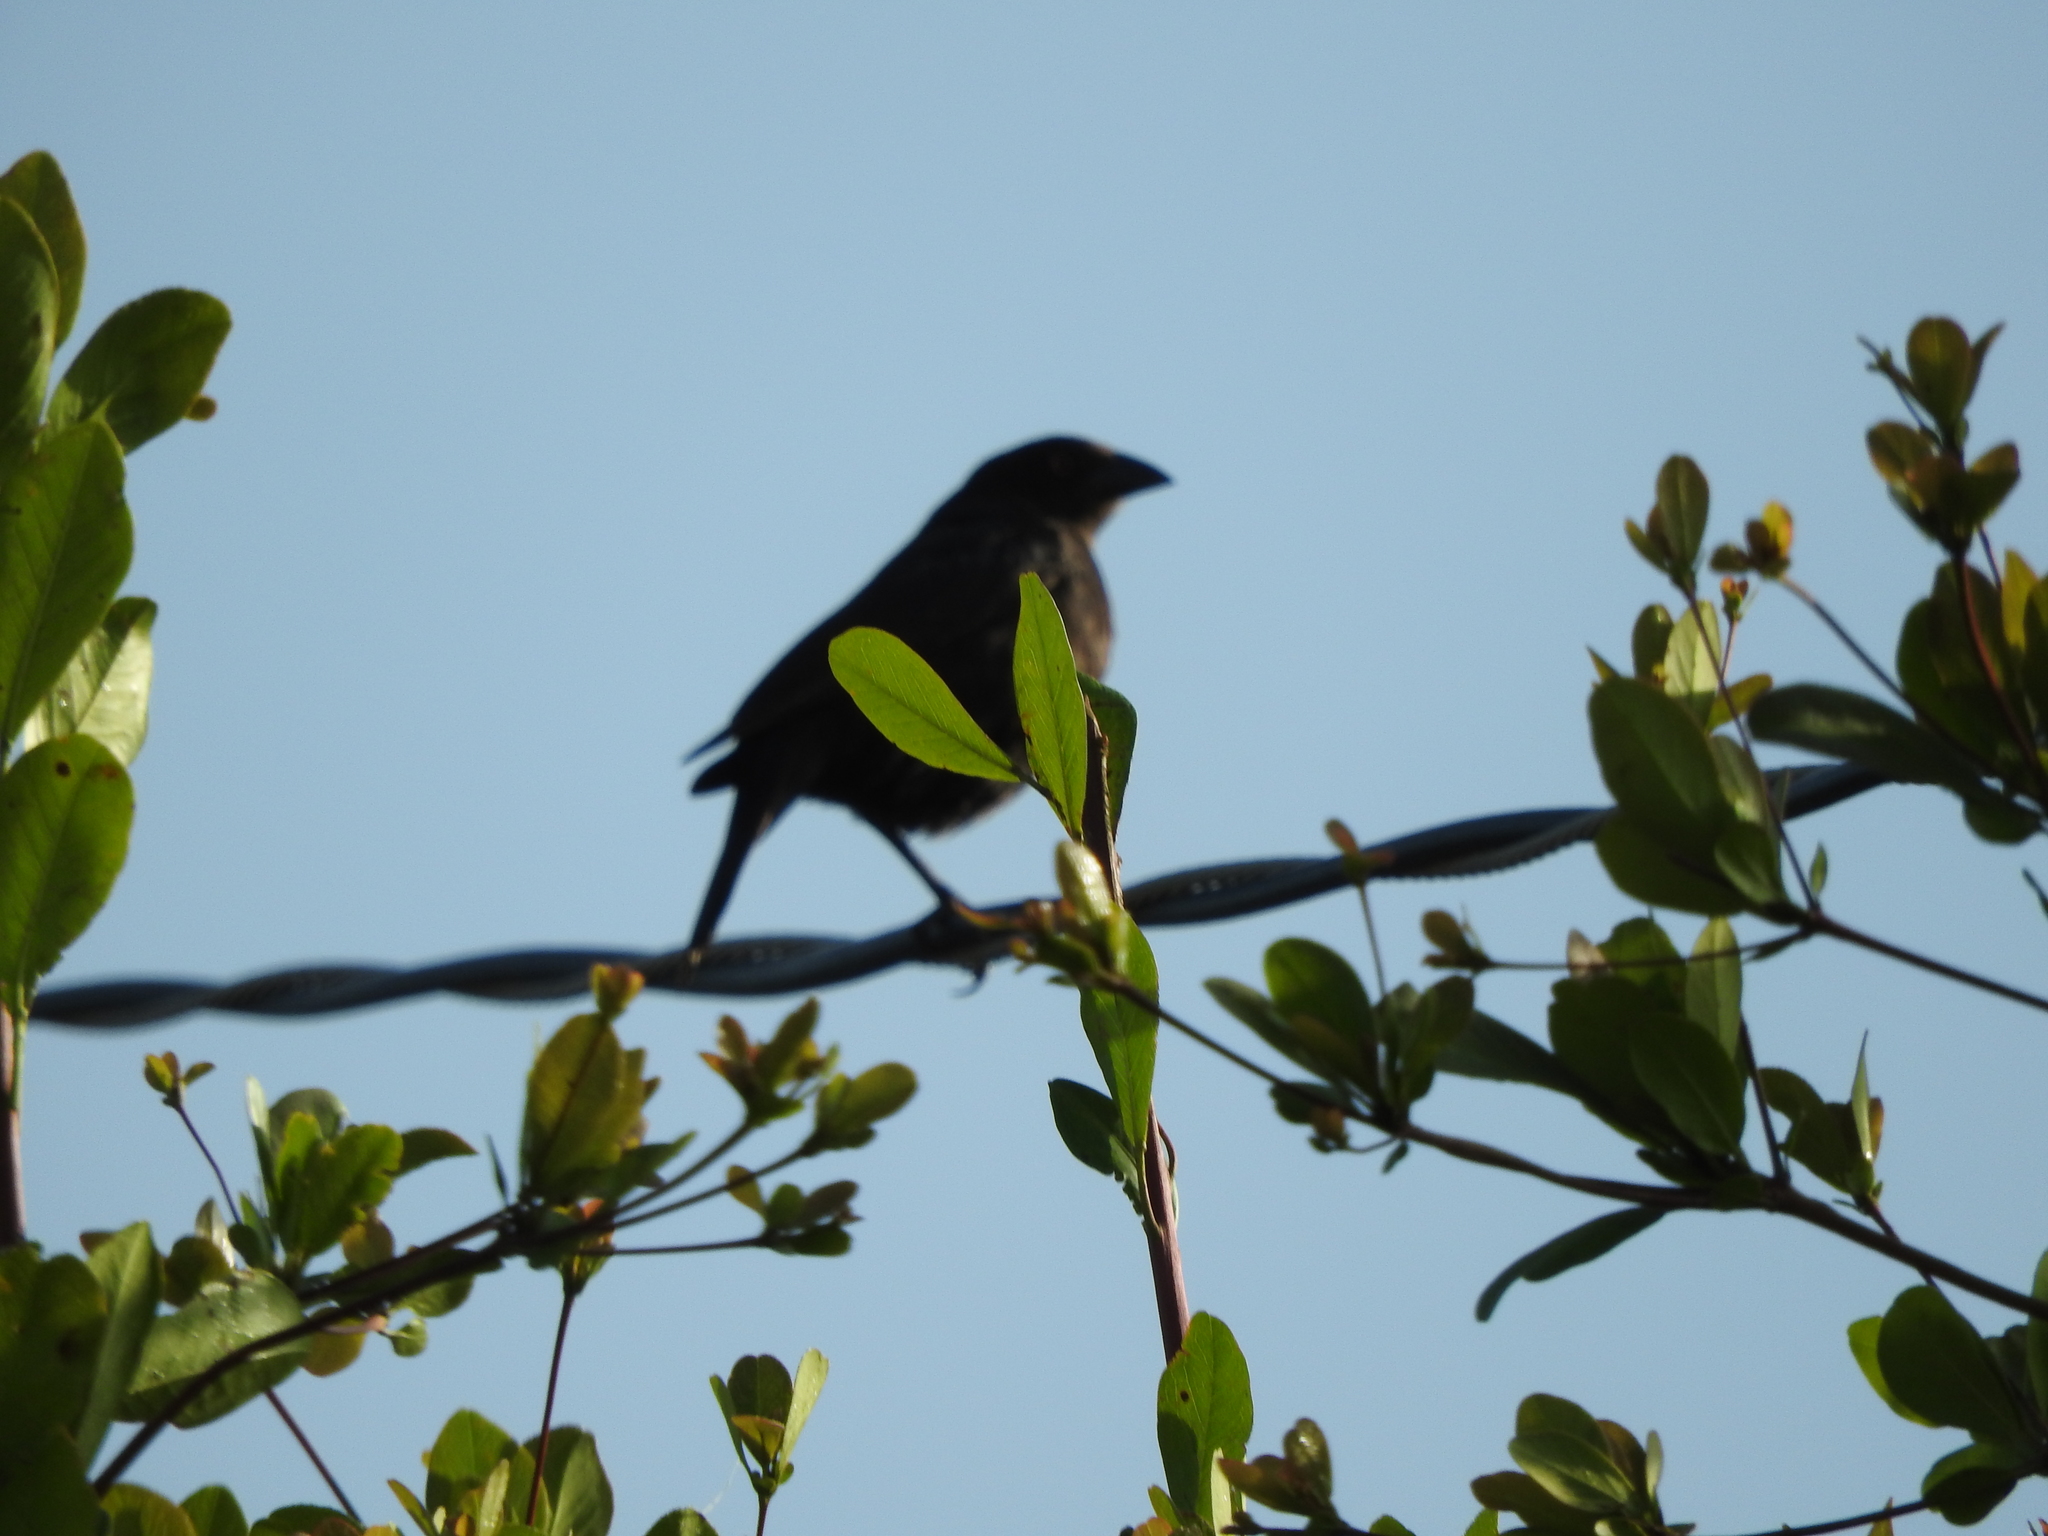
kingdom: Animalia
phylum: Chordata
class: Aves
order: Passeriformes
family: Icteridae
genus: Molothrus
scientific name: Molothrus aeneus
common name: Bronzed cowbird
